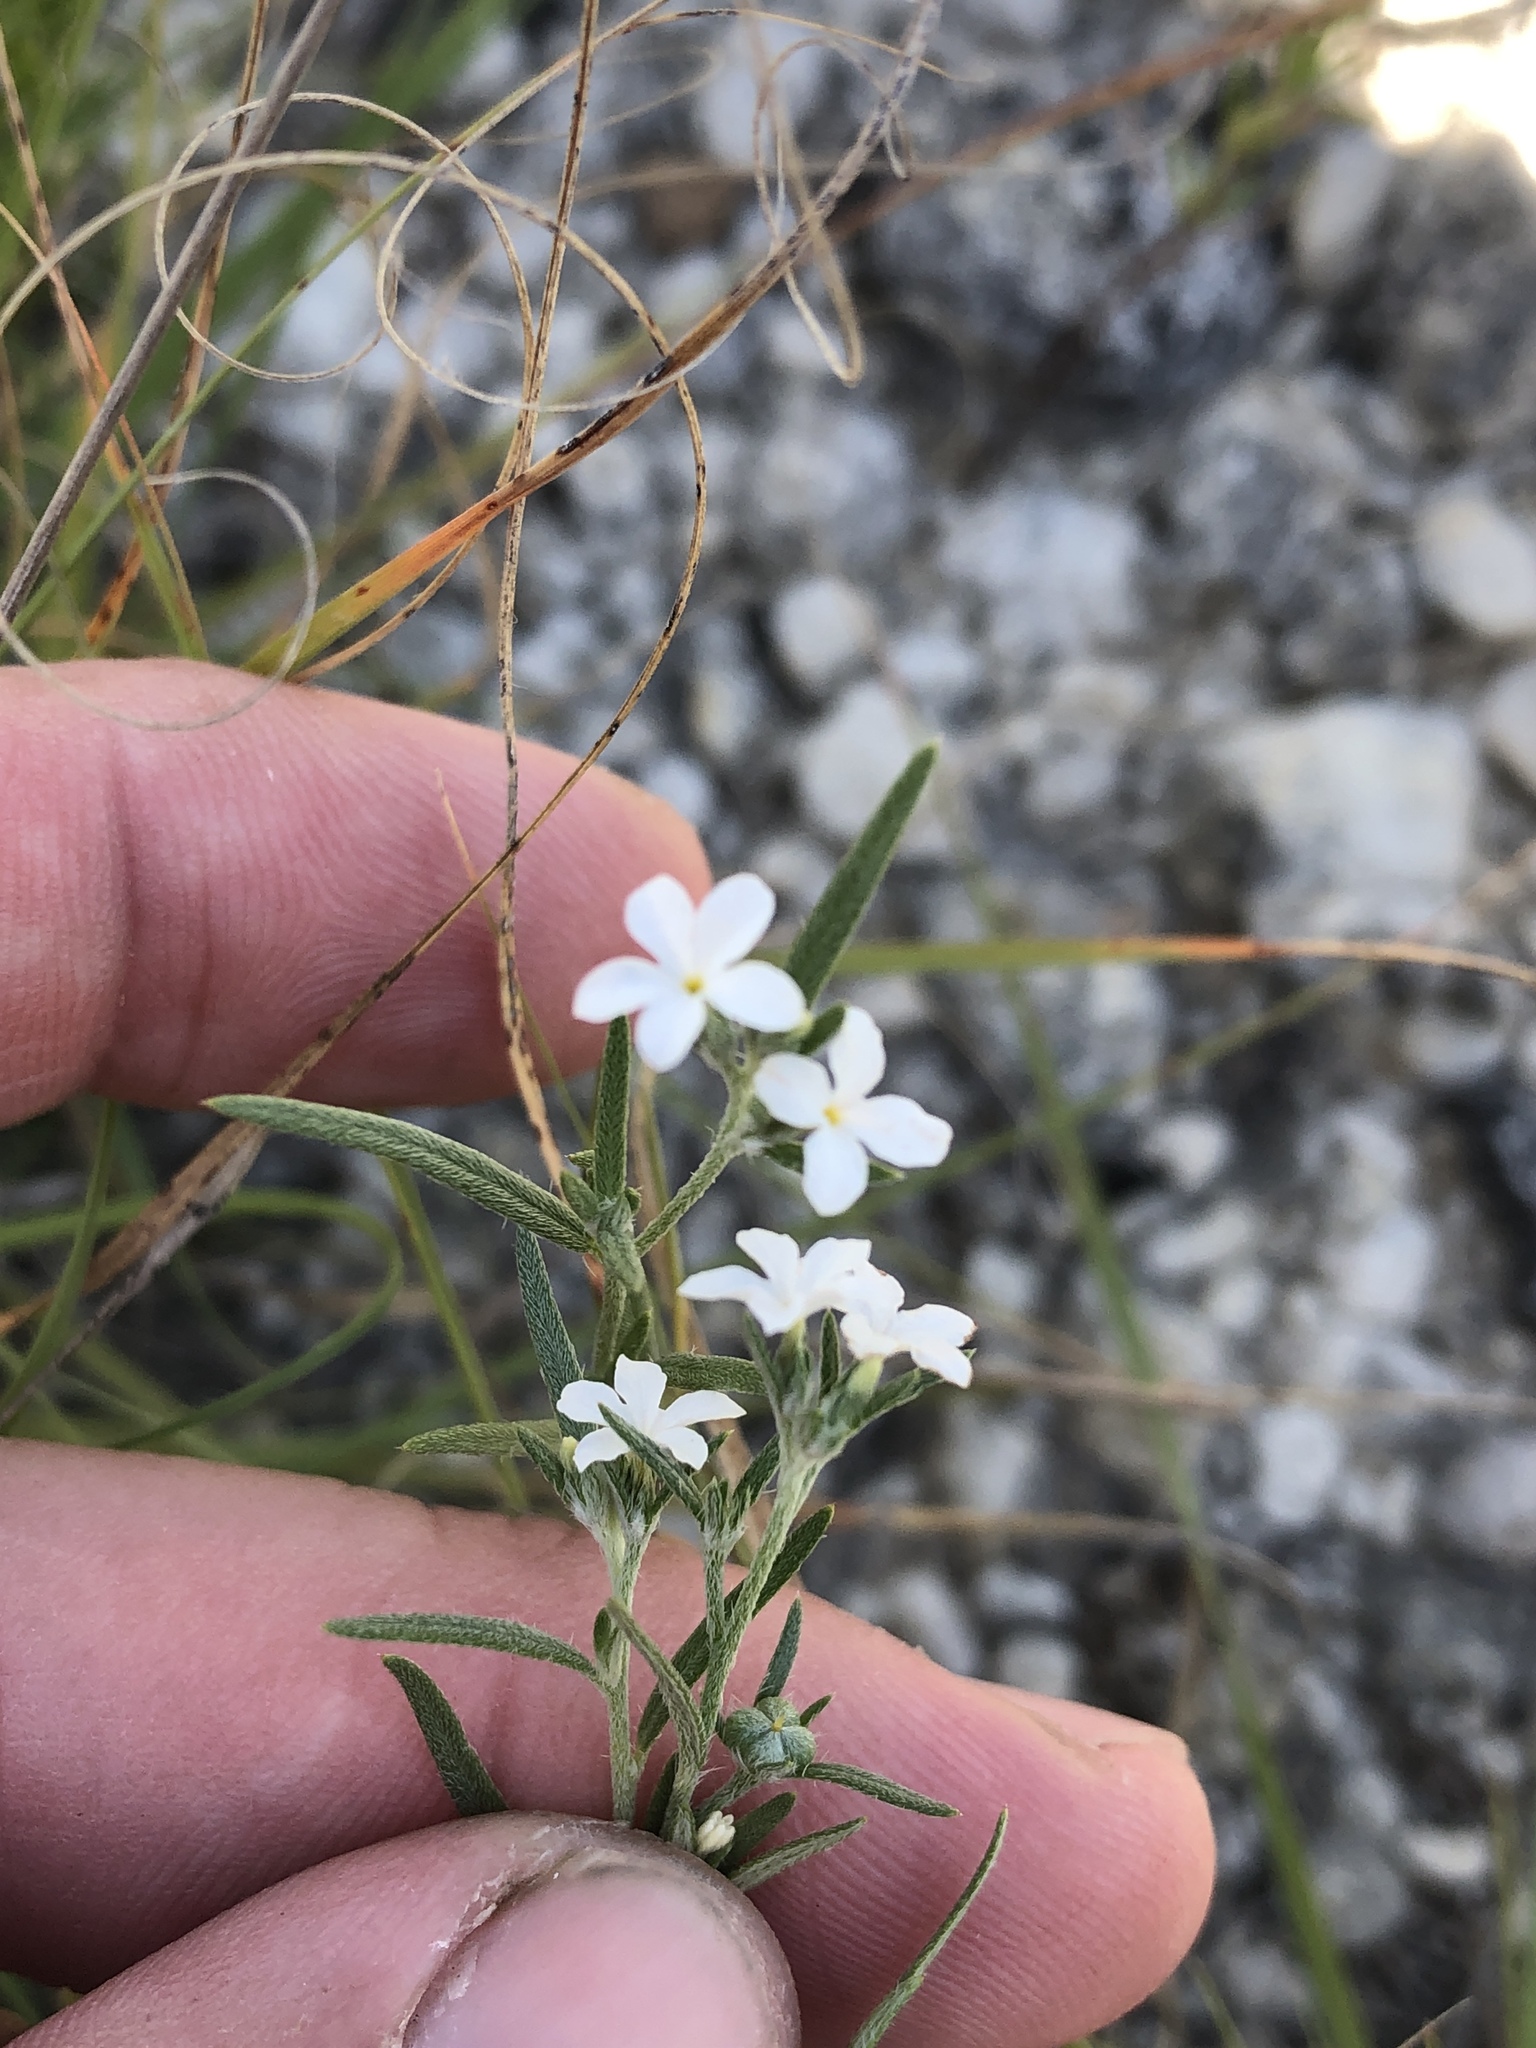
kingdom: Plantae
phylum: Tracheophyta
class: Magnoliopsida
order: Boraginales
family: Heliotropiaceae
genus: Euploca
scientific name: Euploca tenella
